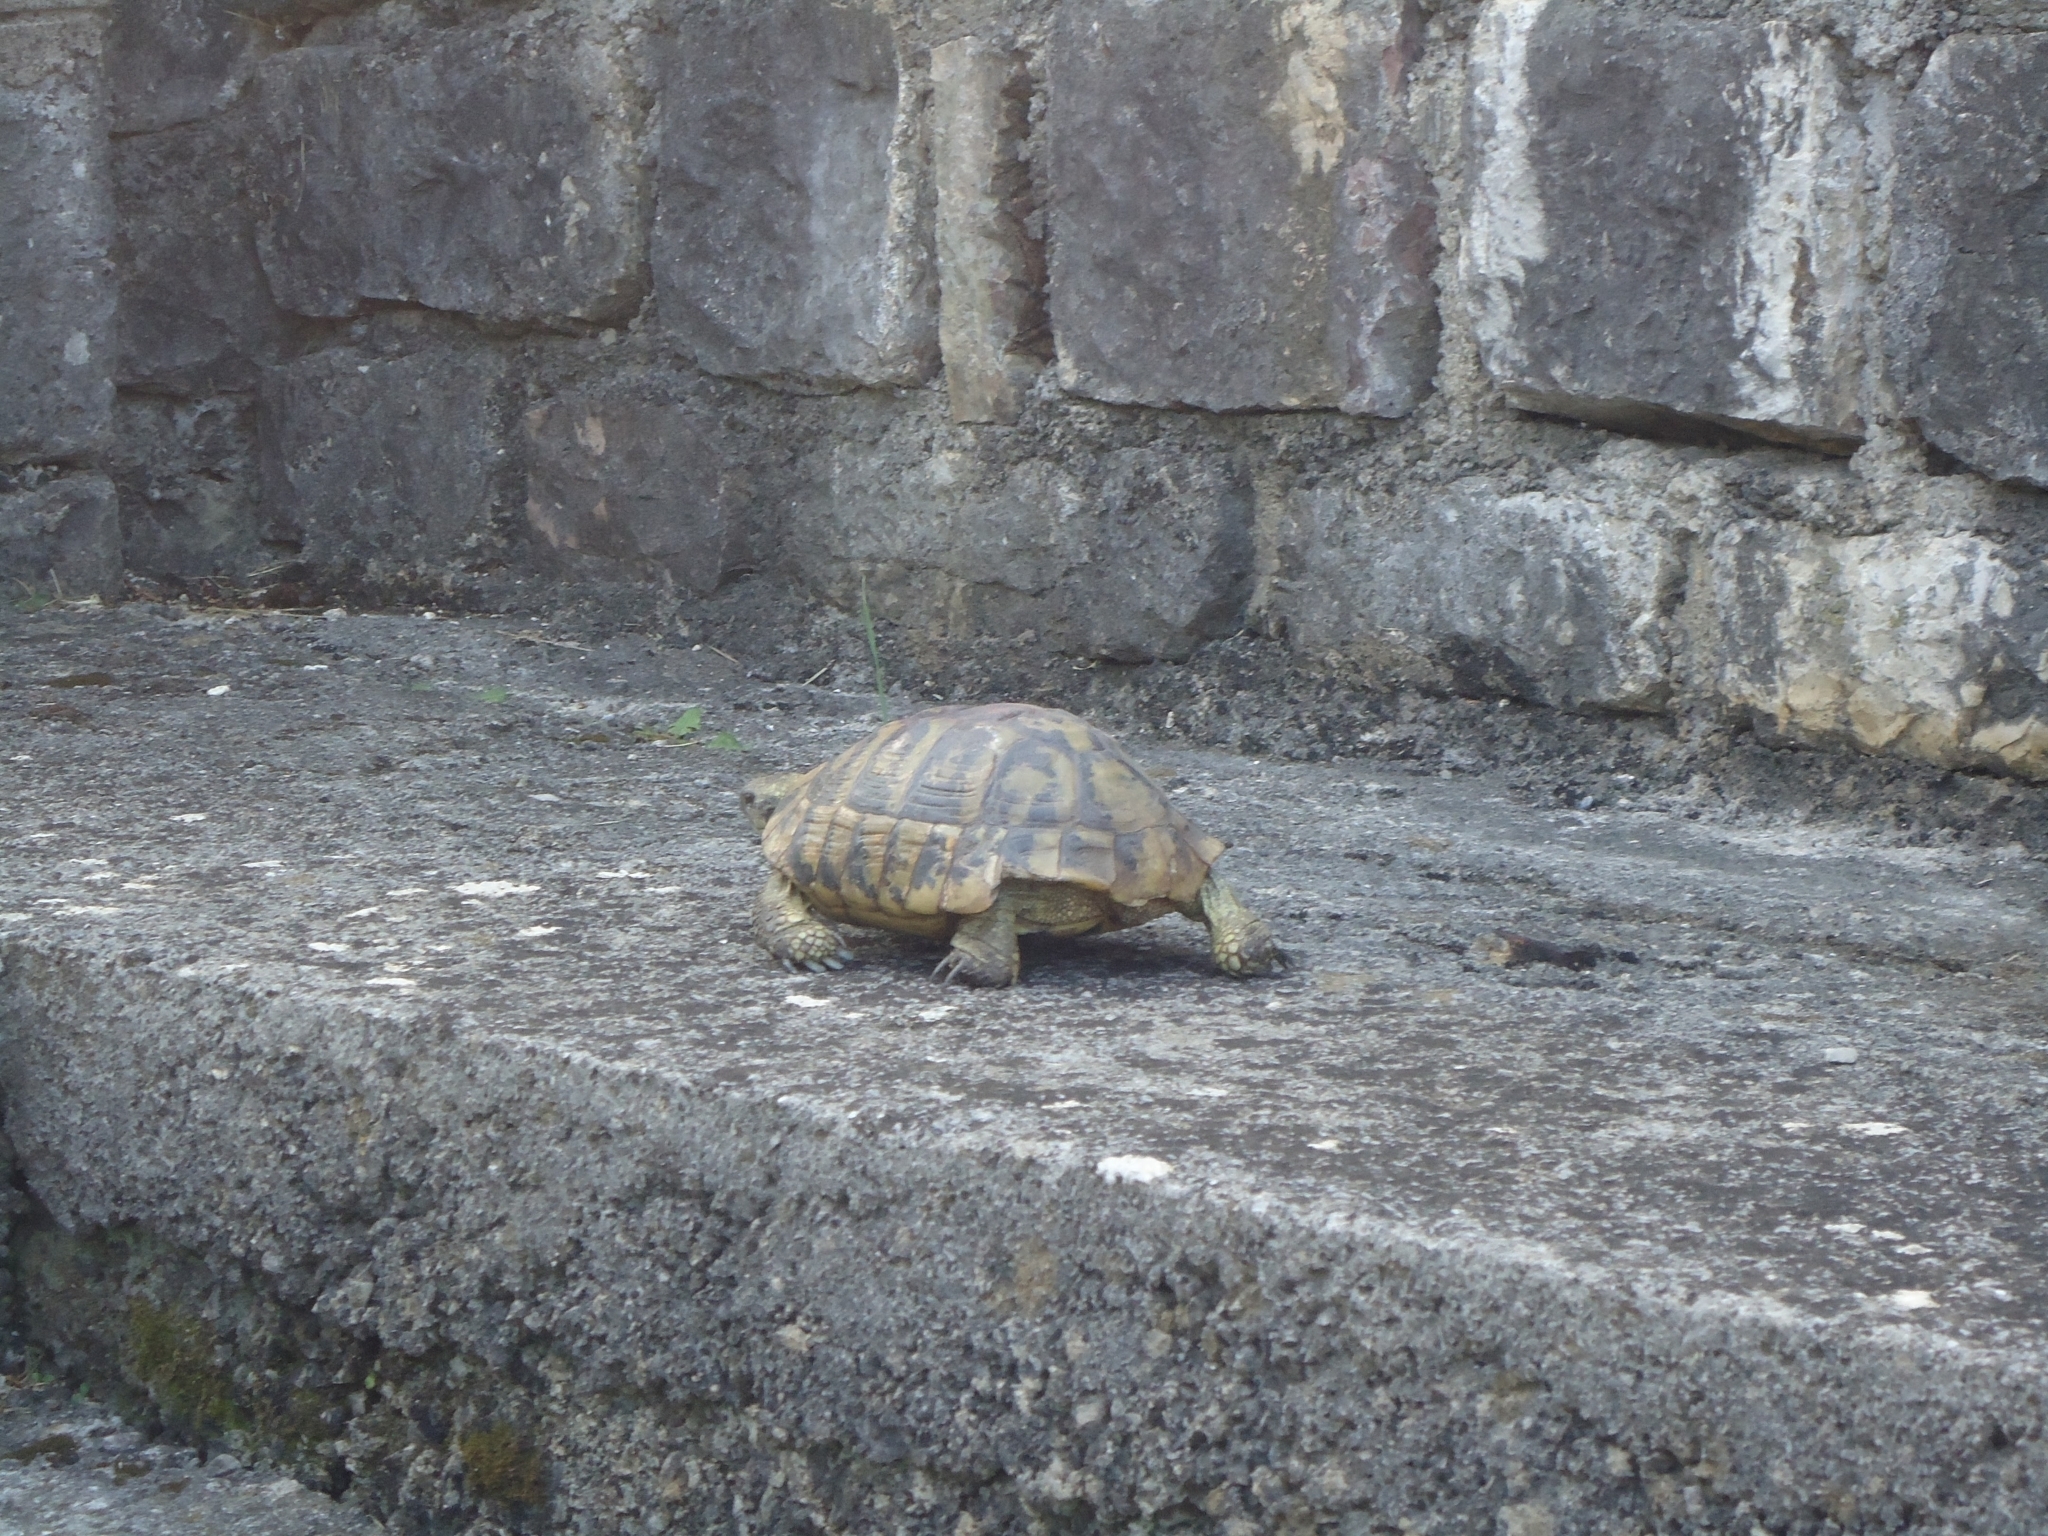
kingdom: Animalia
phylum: Chordata
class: Testudines
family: Testudinidae
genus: Testudo
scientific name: Testudo hermanni
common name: Hermann's tortoise
